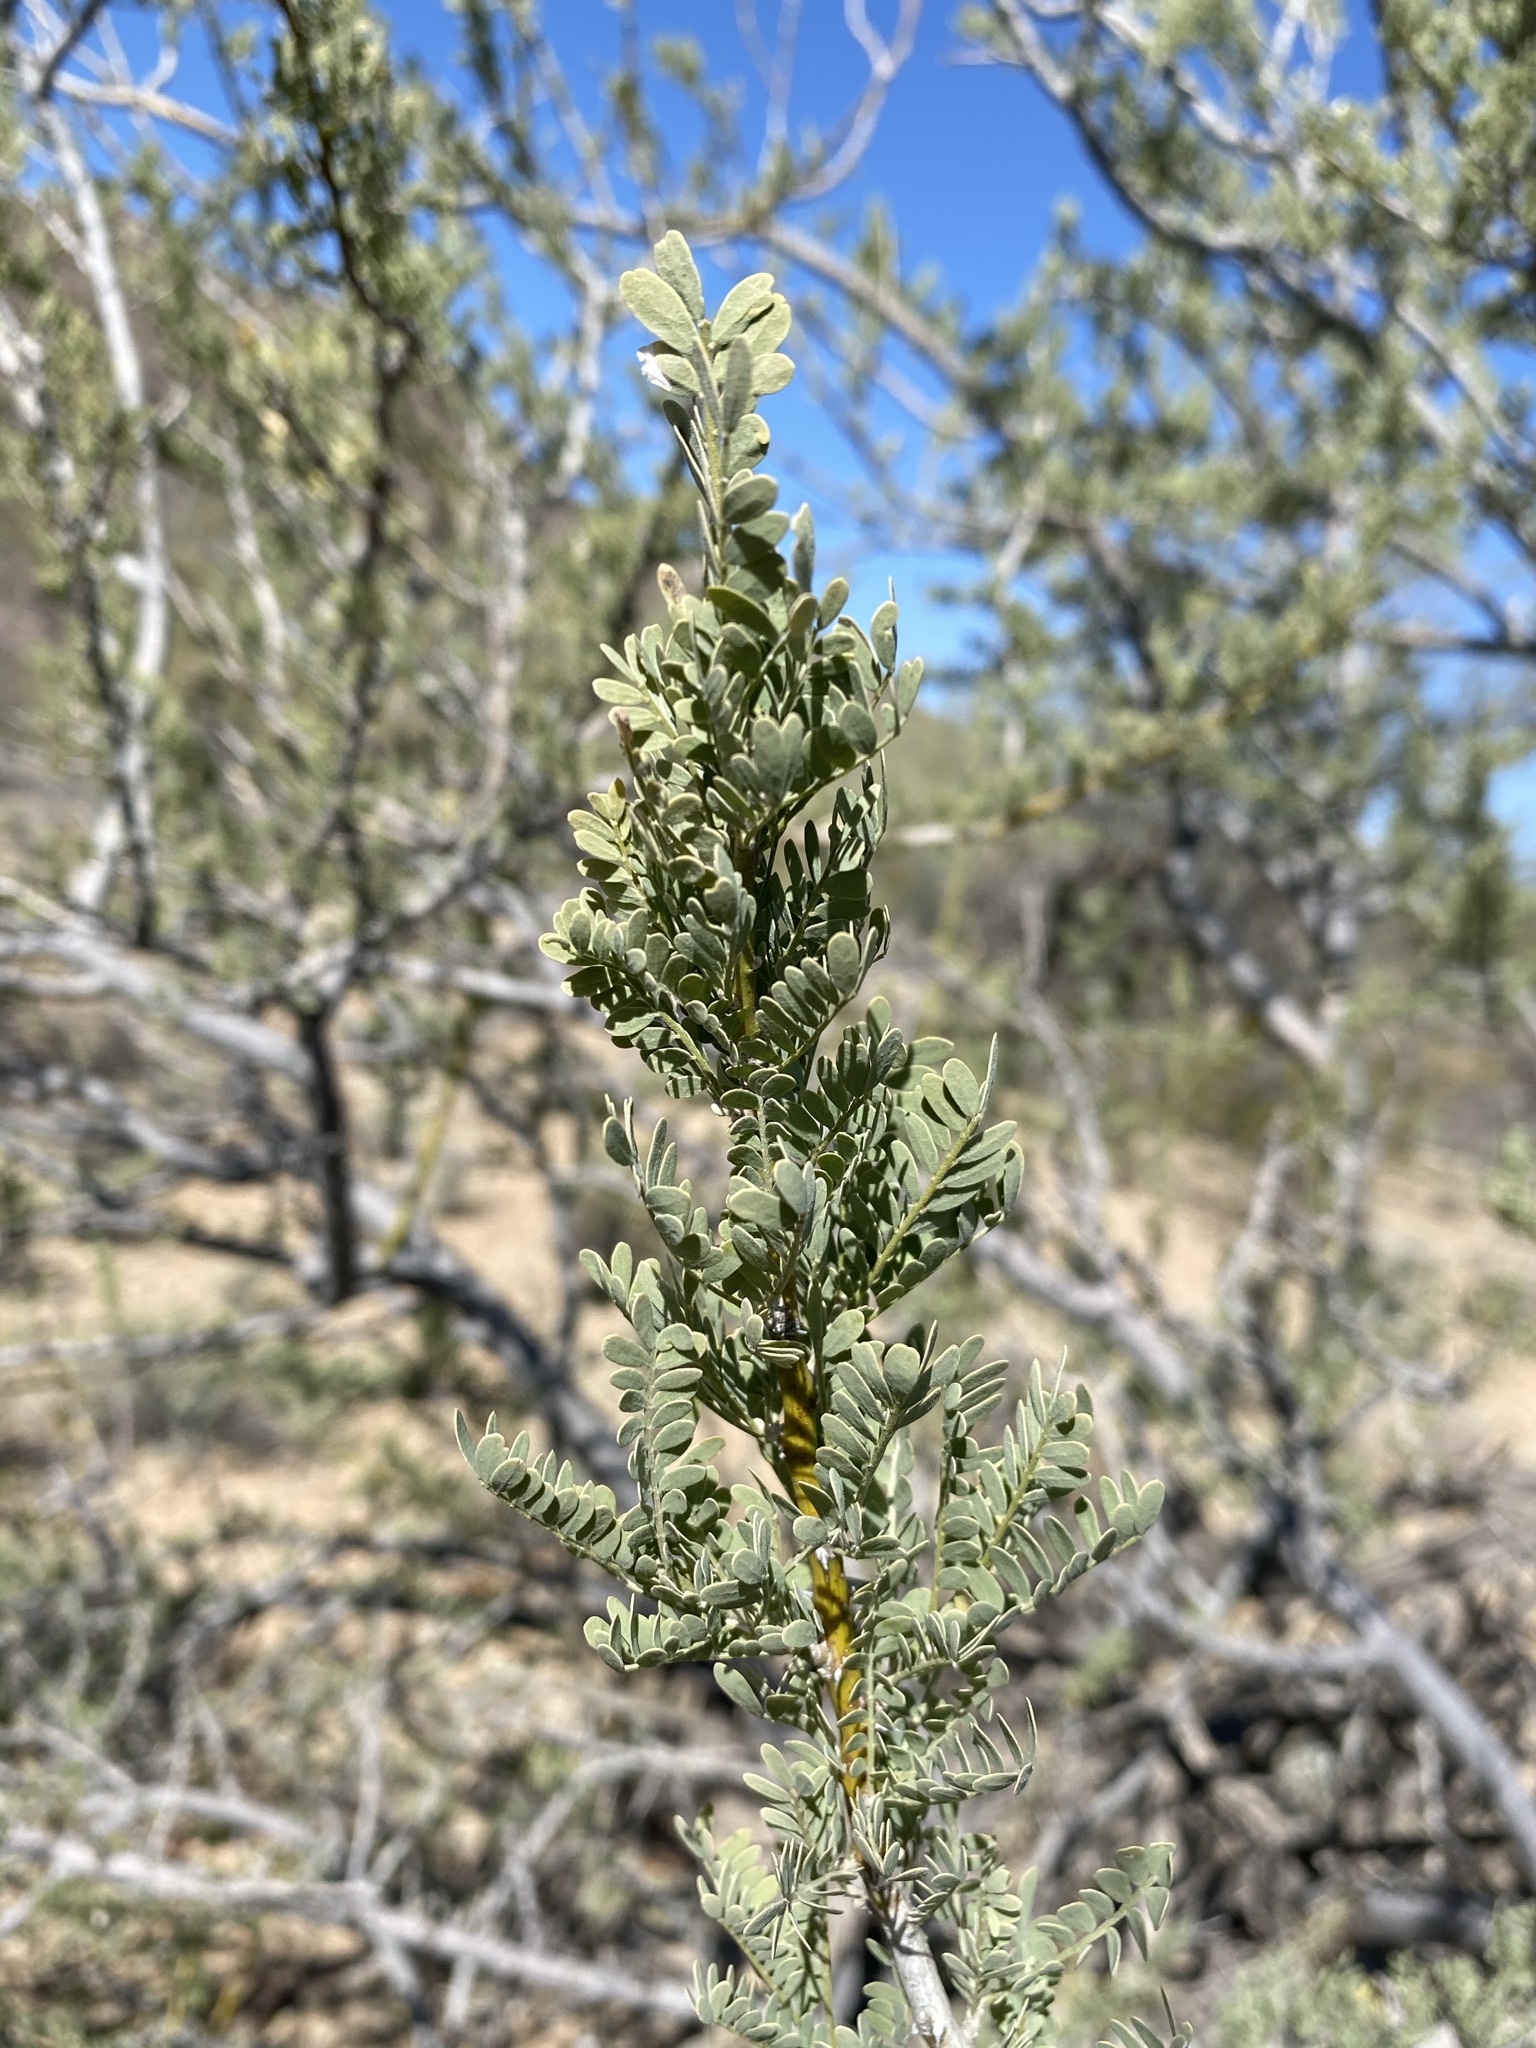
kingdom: Plantae
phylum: Tracheophyta
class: Magnoliopsida
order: Fabales
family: Fabaceae
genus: Olneya
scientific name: Olneya tesota
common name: Desert ironwood
